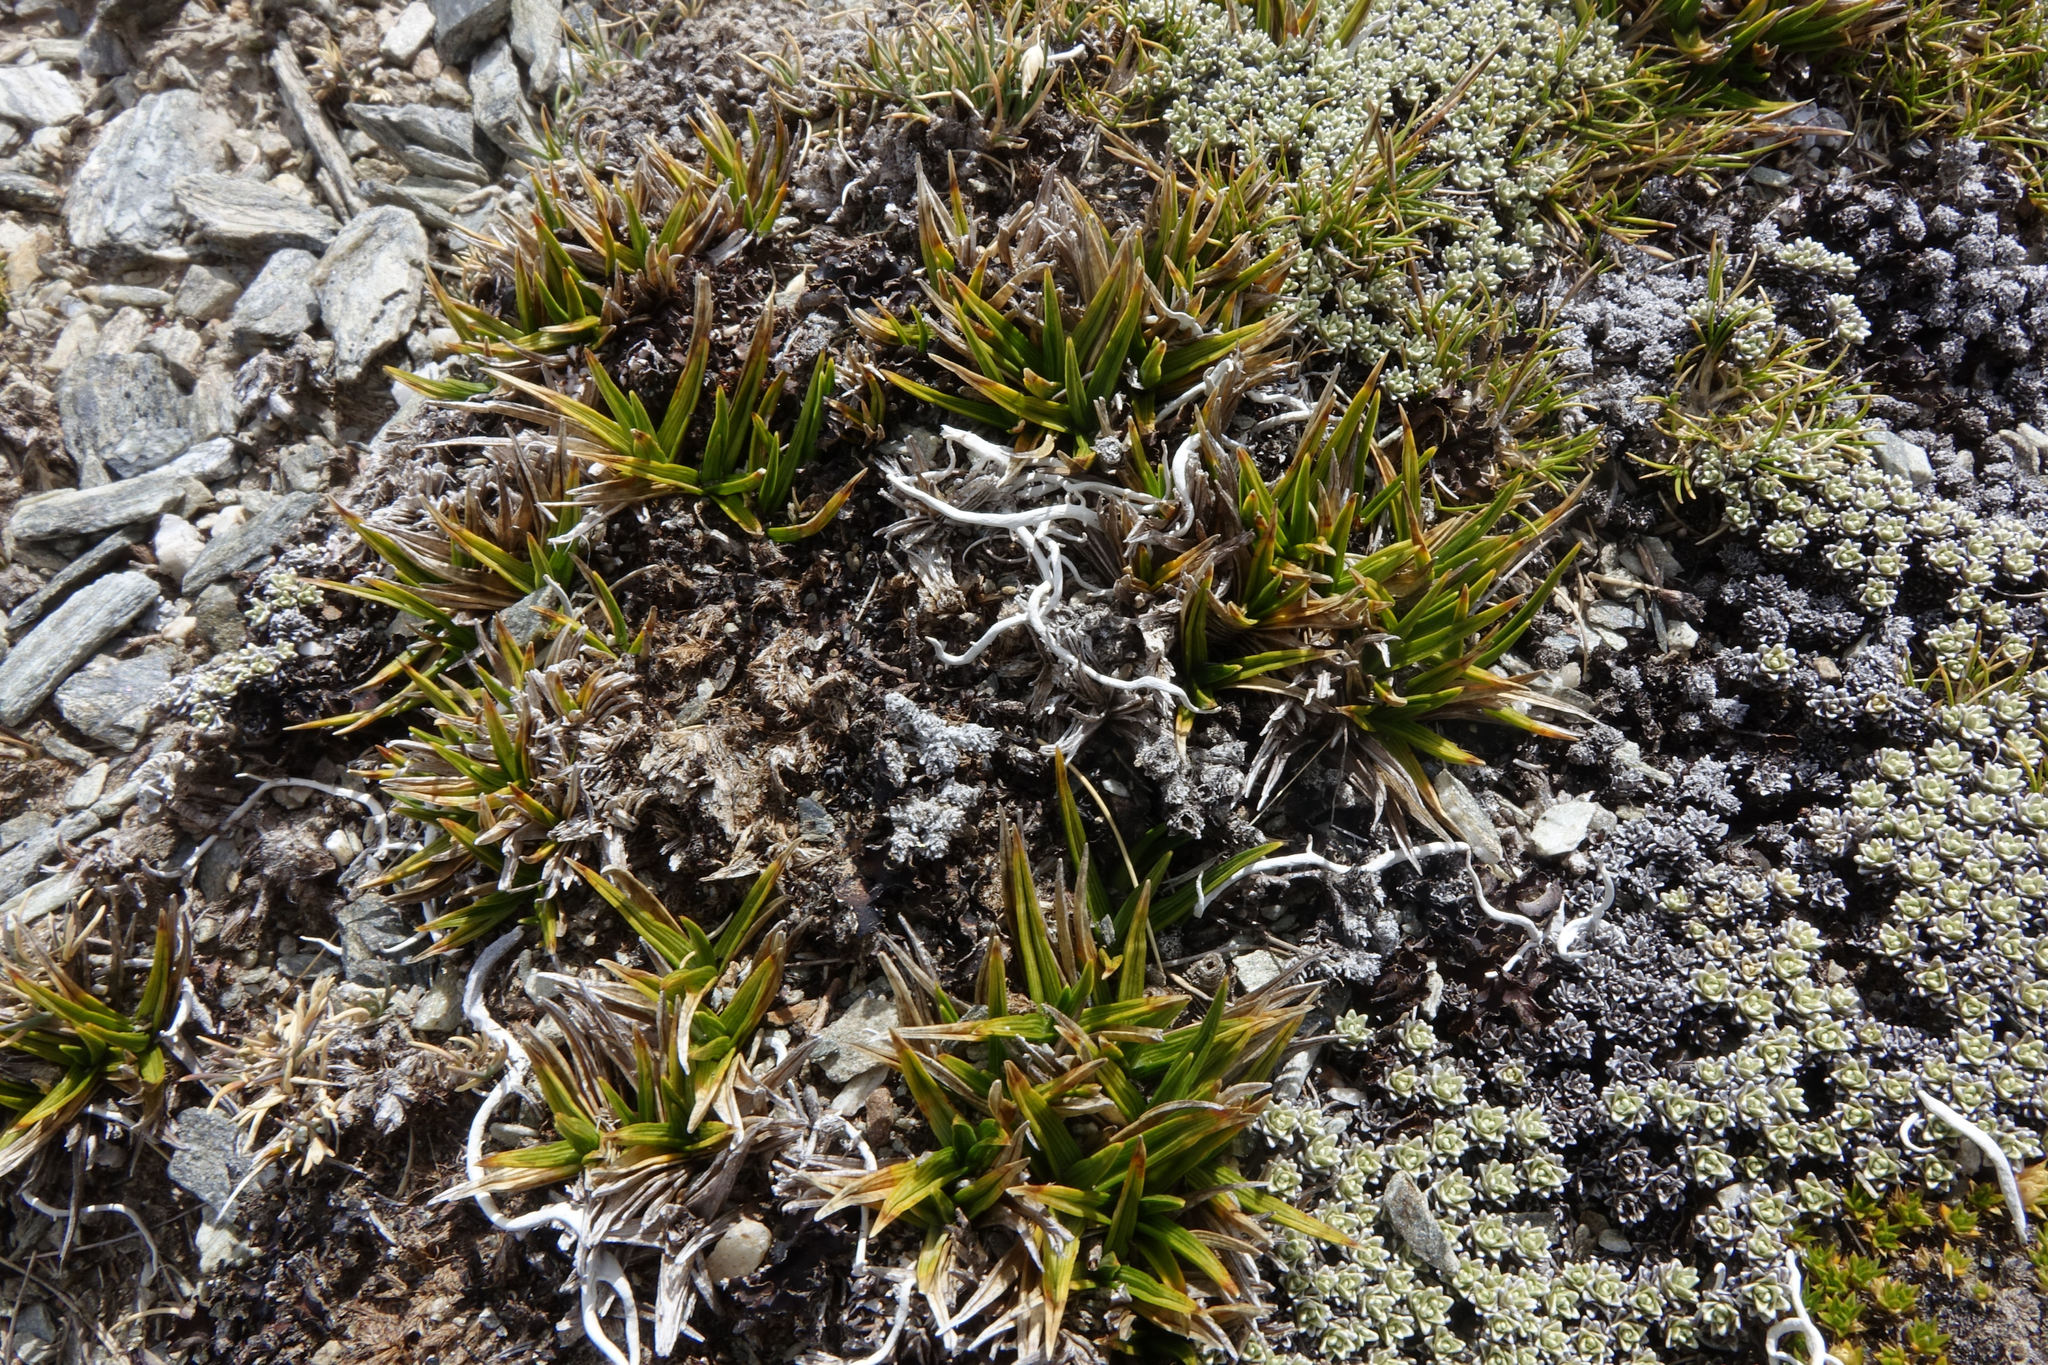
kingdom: Plantae
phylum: Tracheophyta
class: Liliopsida
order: Poales
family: Cyperaceae
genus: Carex
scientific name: Carex pterocarpa
